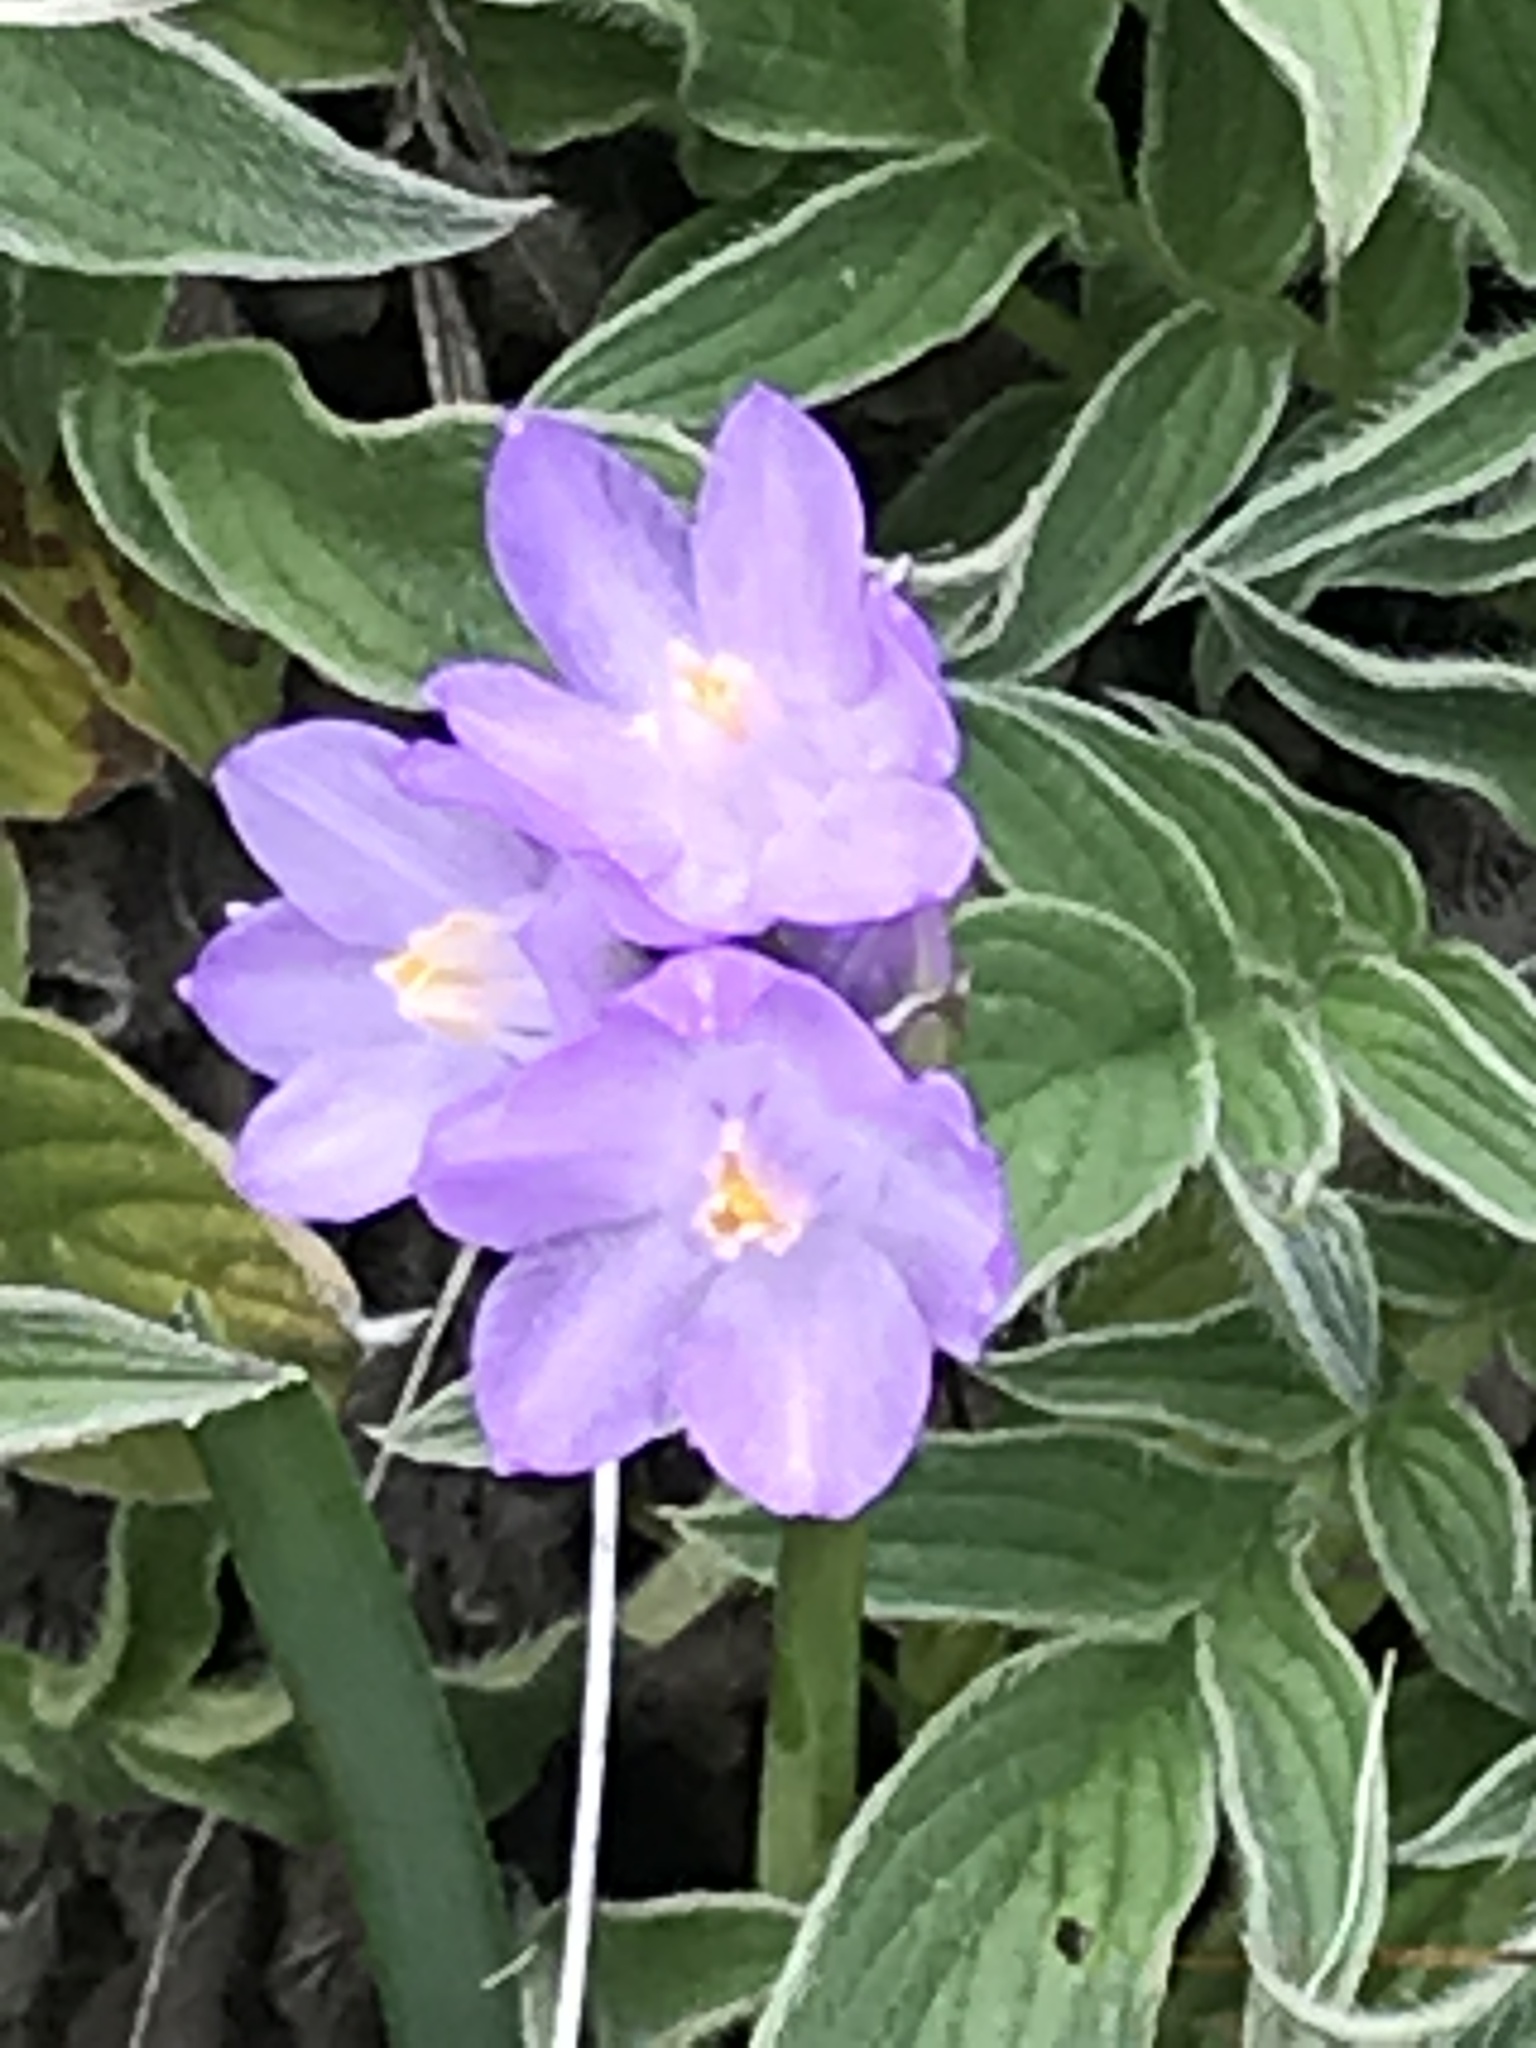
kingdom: Plantae
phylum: Tracheophyta
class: Liliopsida
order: Asparagales
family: Asparagaceae
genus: Dipterostemon
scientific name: Dipterostemon capitatus
